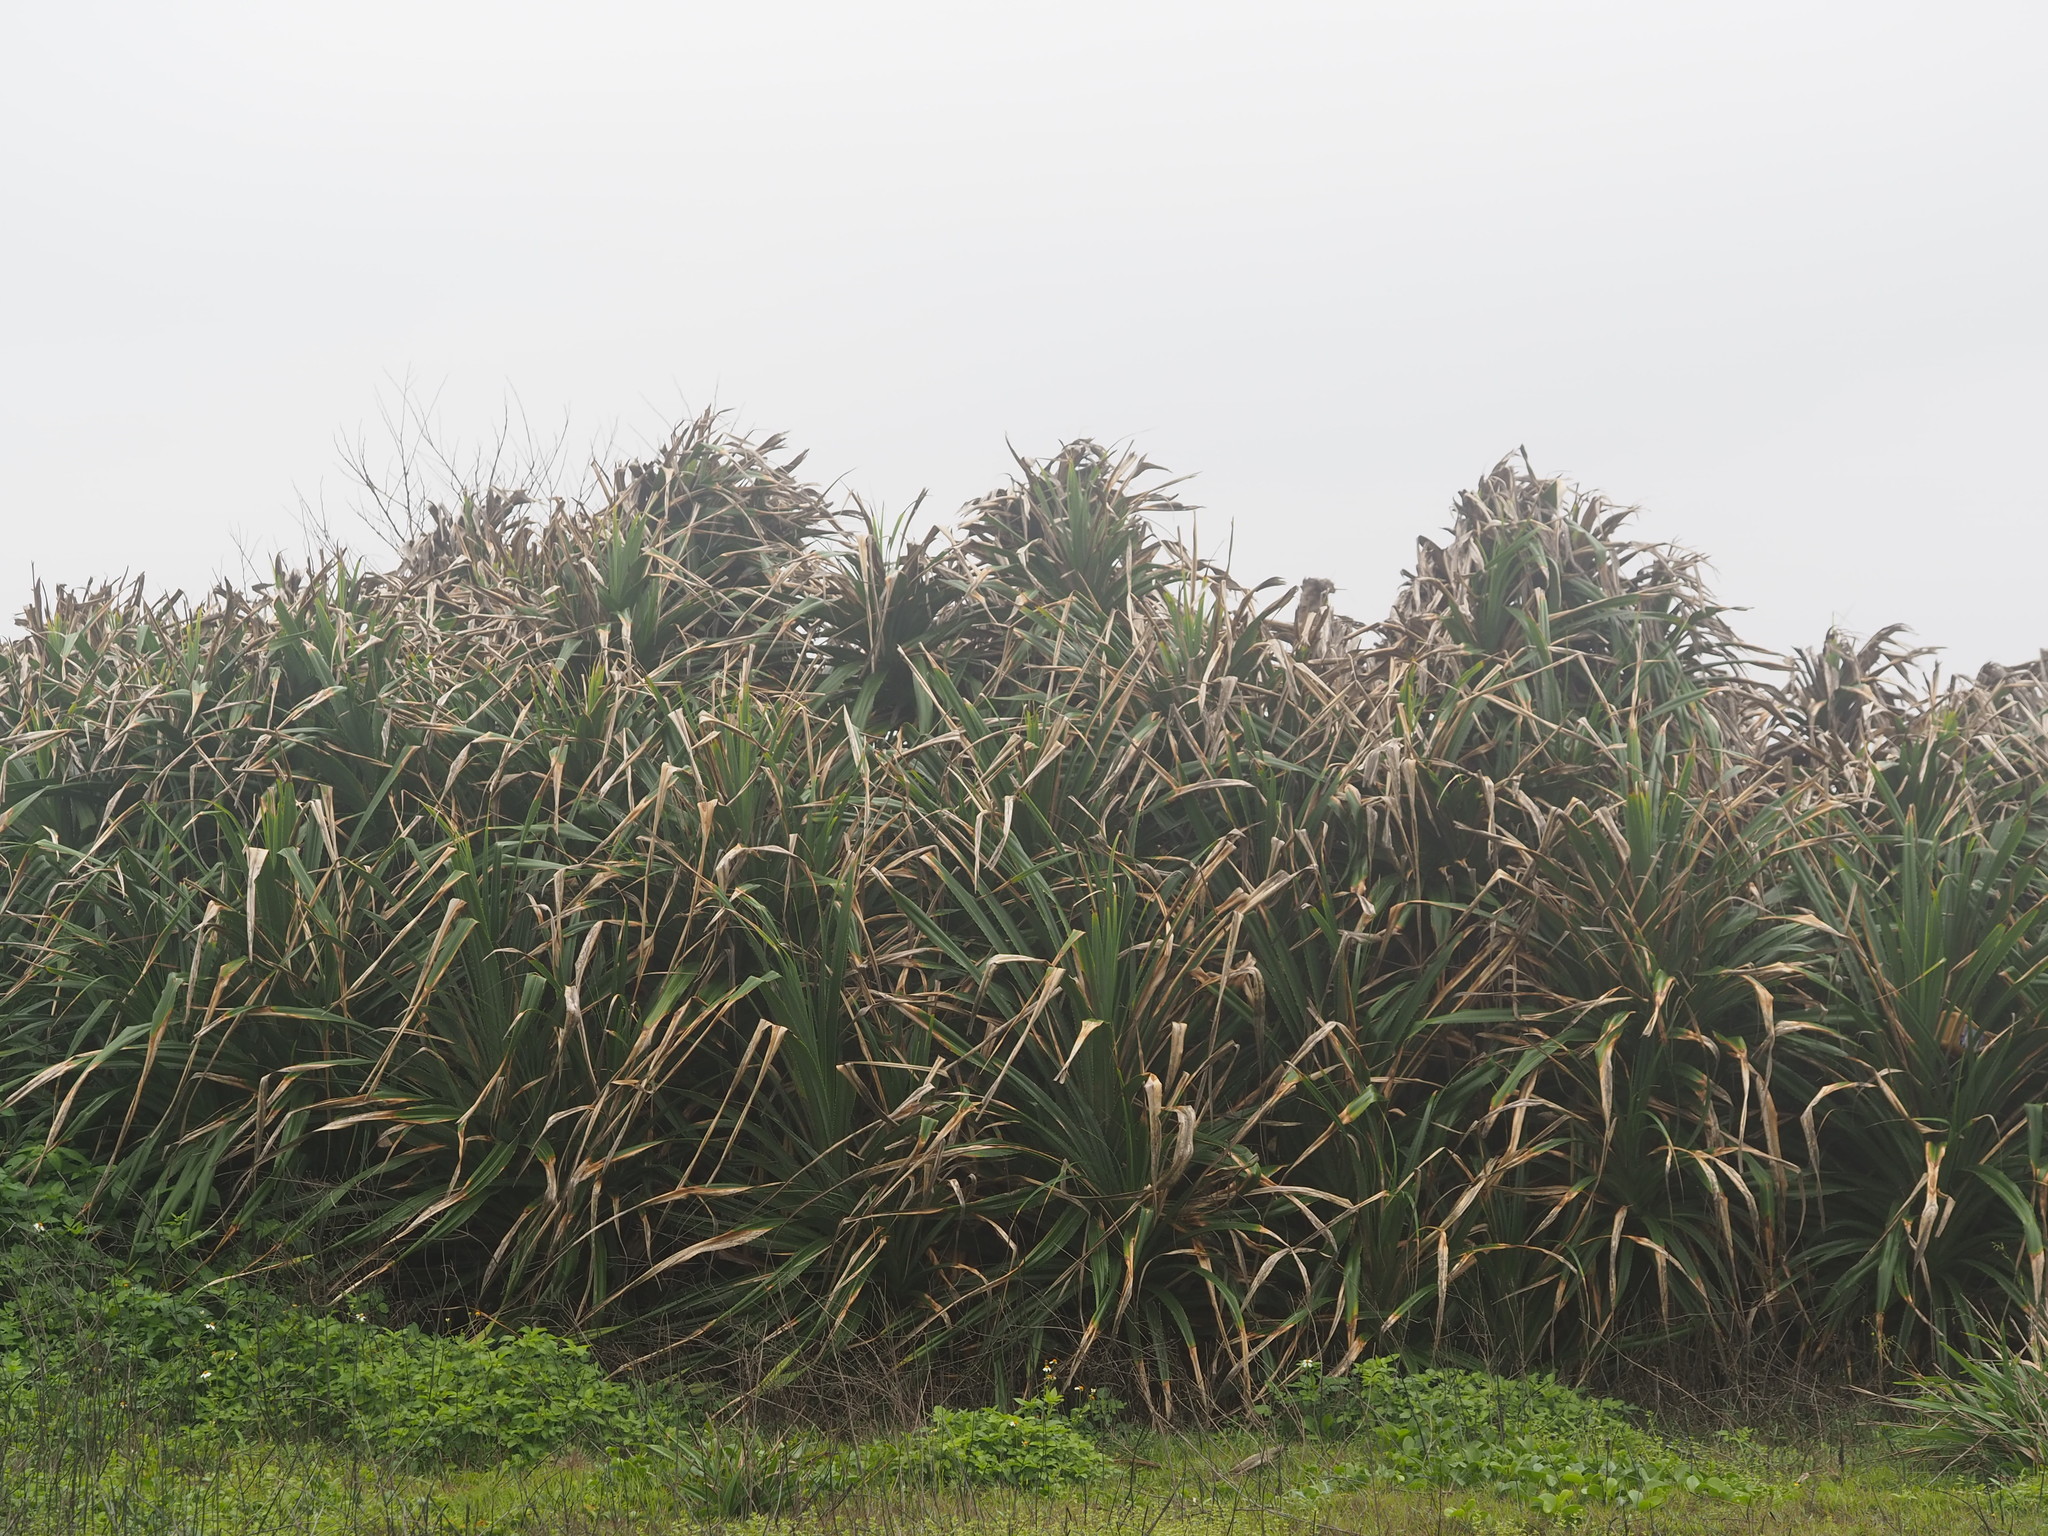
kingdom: Plantae
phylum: Tracheophyta
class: Liliopsida
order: Pandanales
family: Pandanaceae
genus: Pandanus
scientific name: Pandanus odorifer
